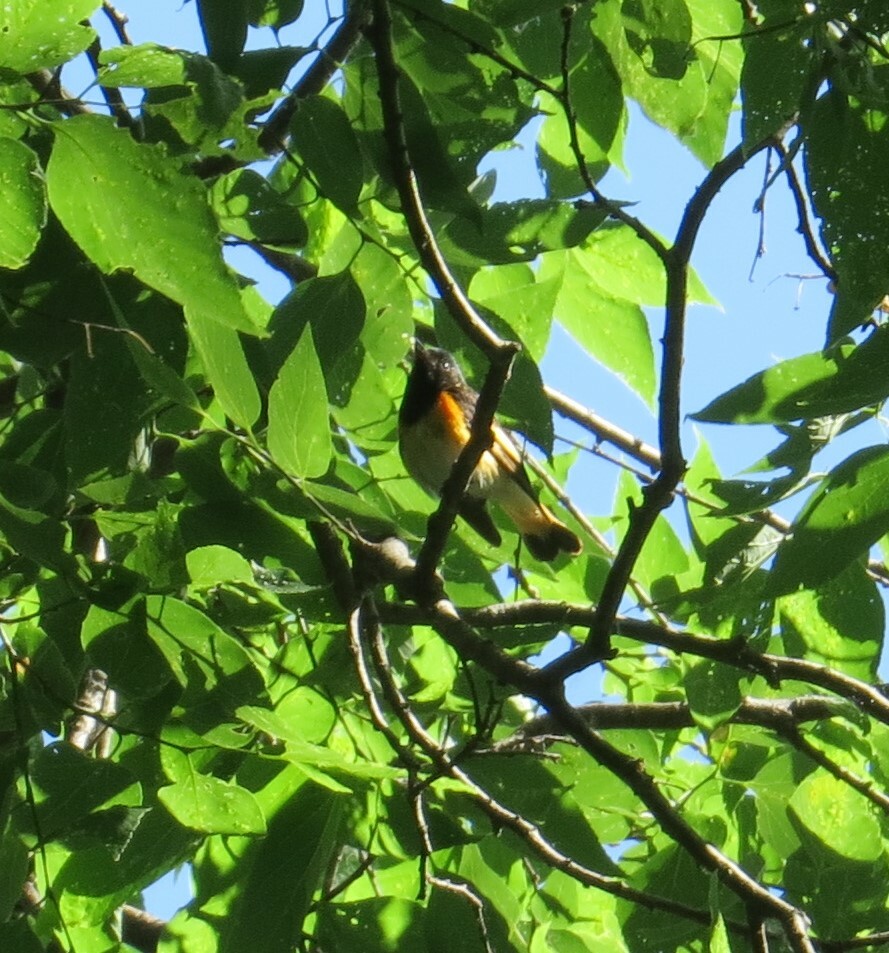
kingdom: Animalia
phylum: Chordata
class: Aves
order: Passeriformes
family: Parulidae
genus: Setophaga
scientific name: Setophaga ruticilla
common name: American redstart
